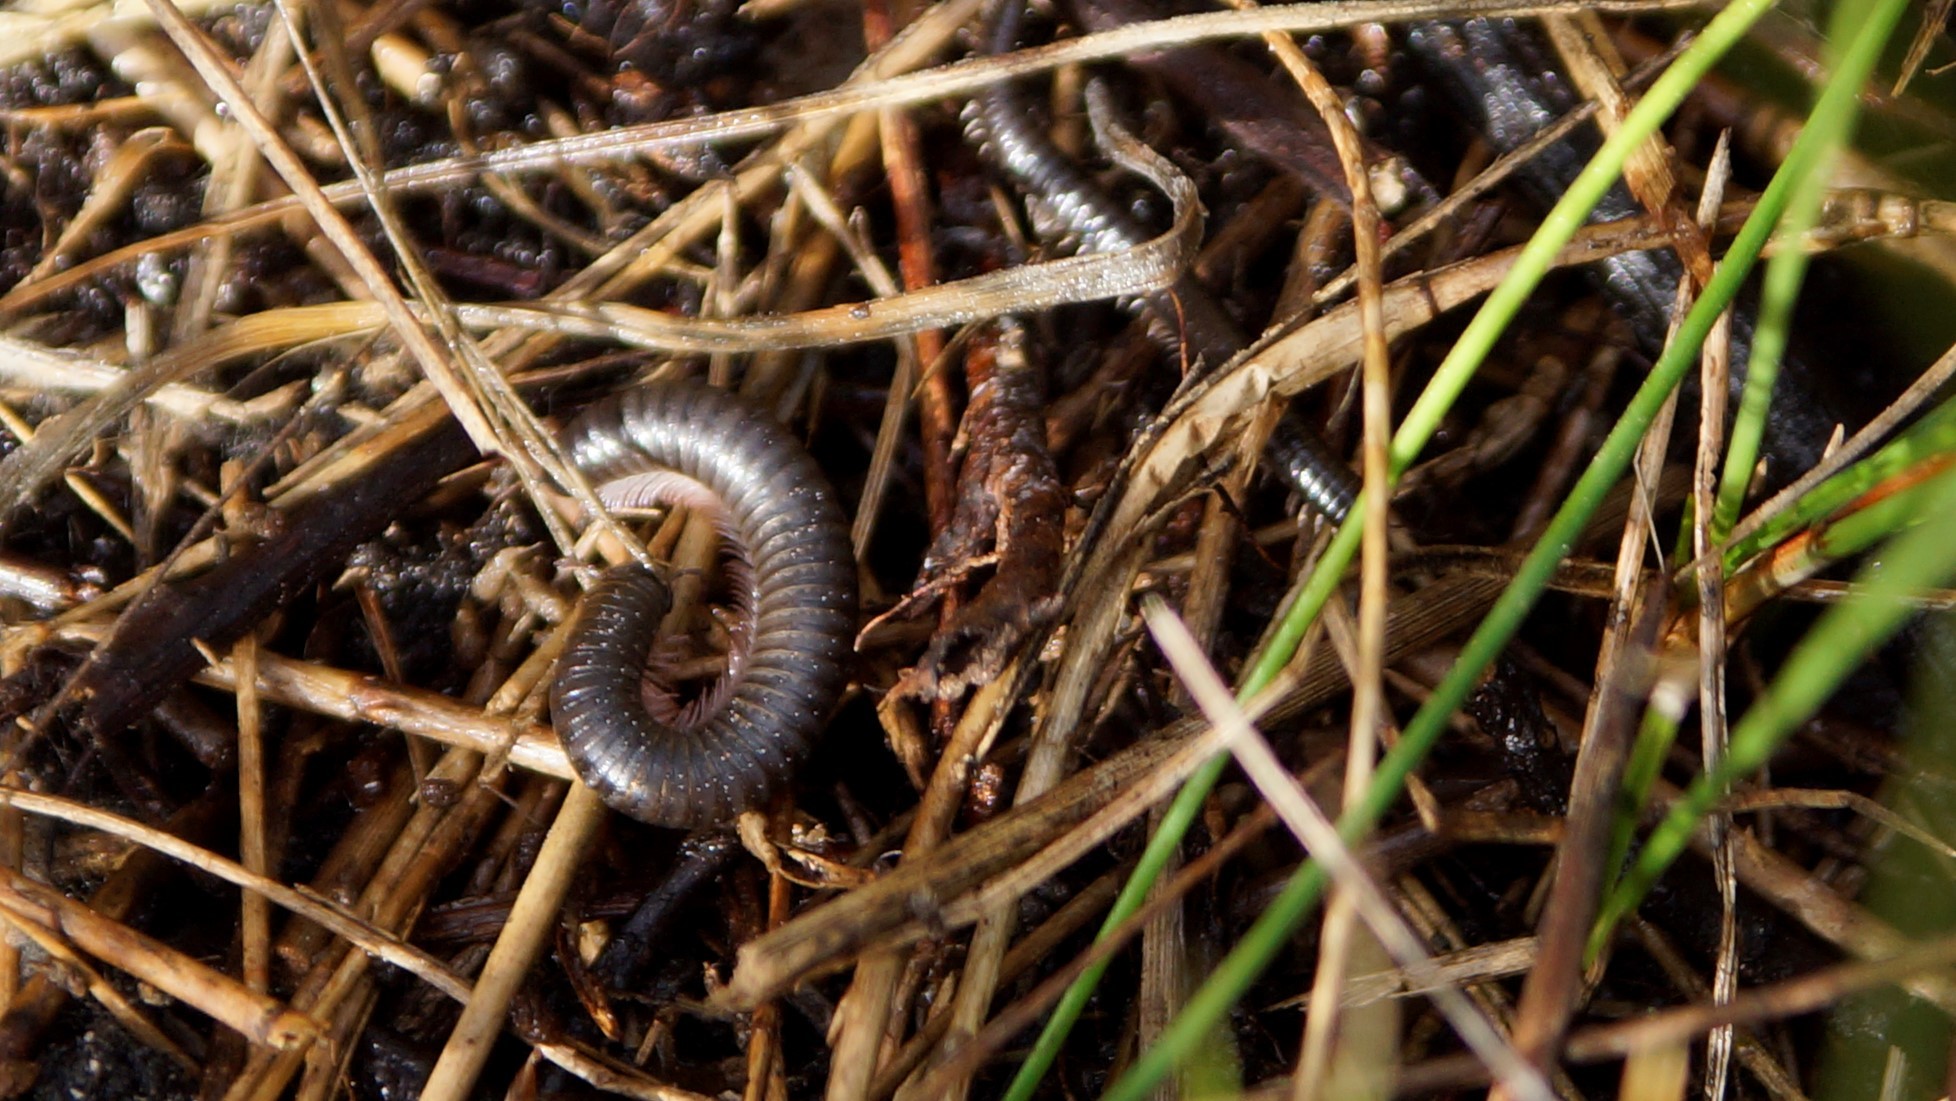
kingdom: Animalia
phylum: Arthropoda
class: Diplopoda
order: Julida
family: Julidae
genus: Ommatoiulus
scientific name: Ommatoiulus moreleti
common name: Portuguese millipede
